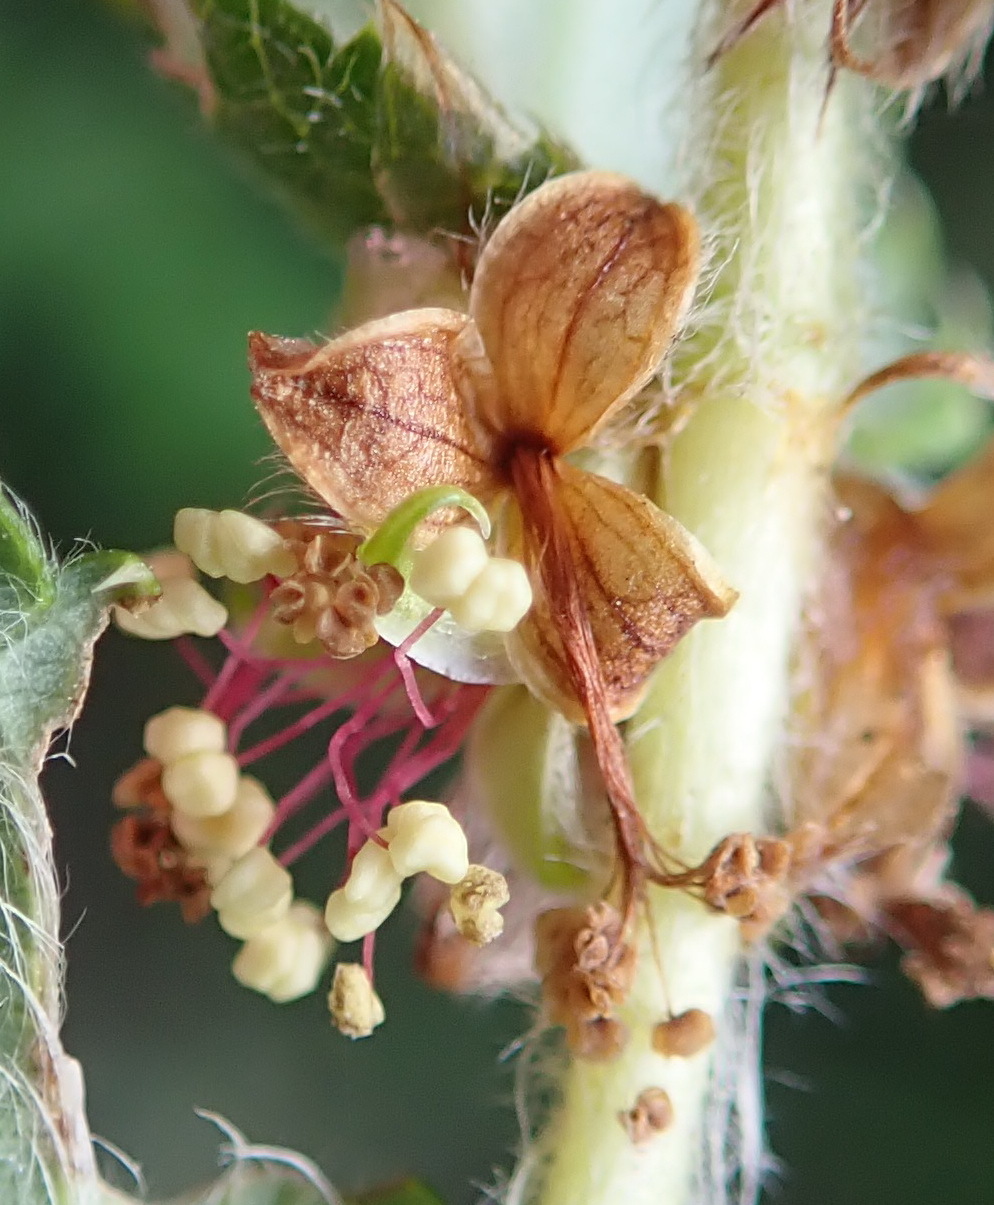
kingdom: Plantae
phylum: Tracheophyta
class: Magnoliopsida
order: Rosales
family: Rosaceae
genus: Cliffortia
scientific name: Cliffortia odorata
